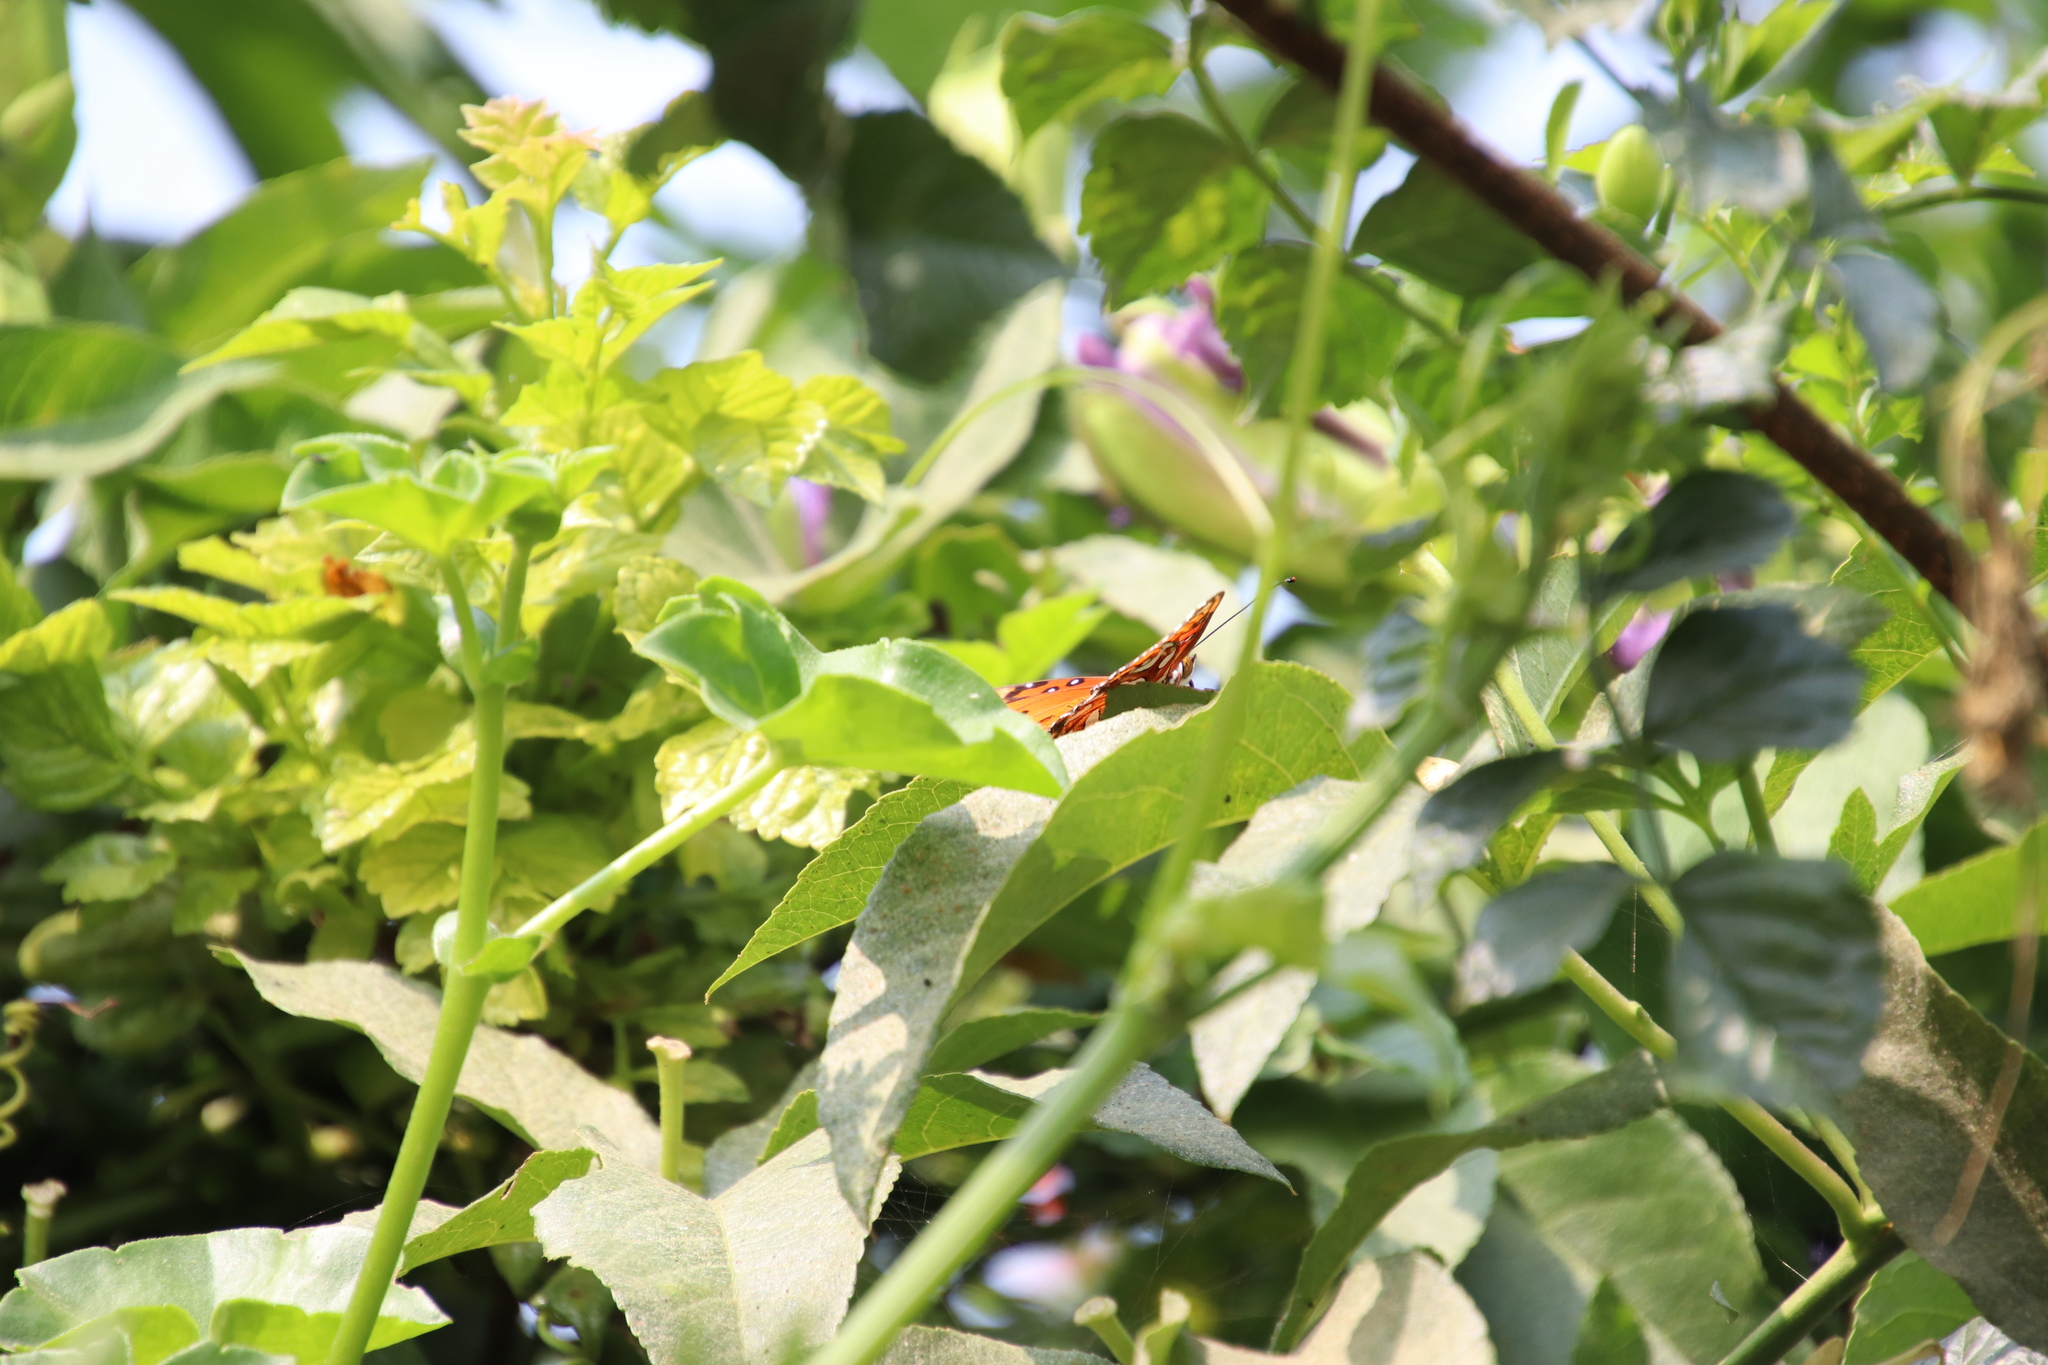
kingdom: Animalia
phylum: Arthropoda
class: Insecta
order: Lepidoptera
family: Nymphalidae
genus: Dione
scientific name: Dione vanillae
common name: Gulf fritillary
